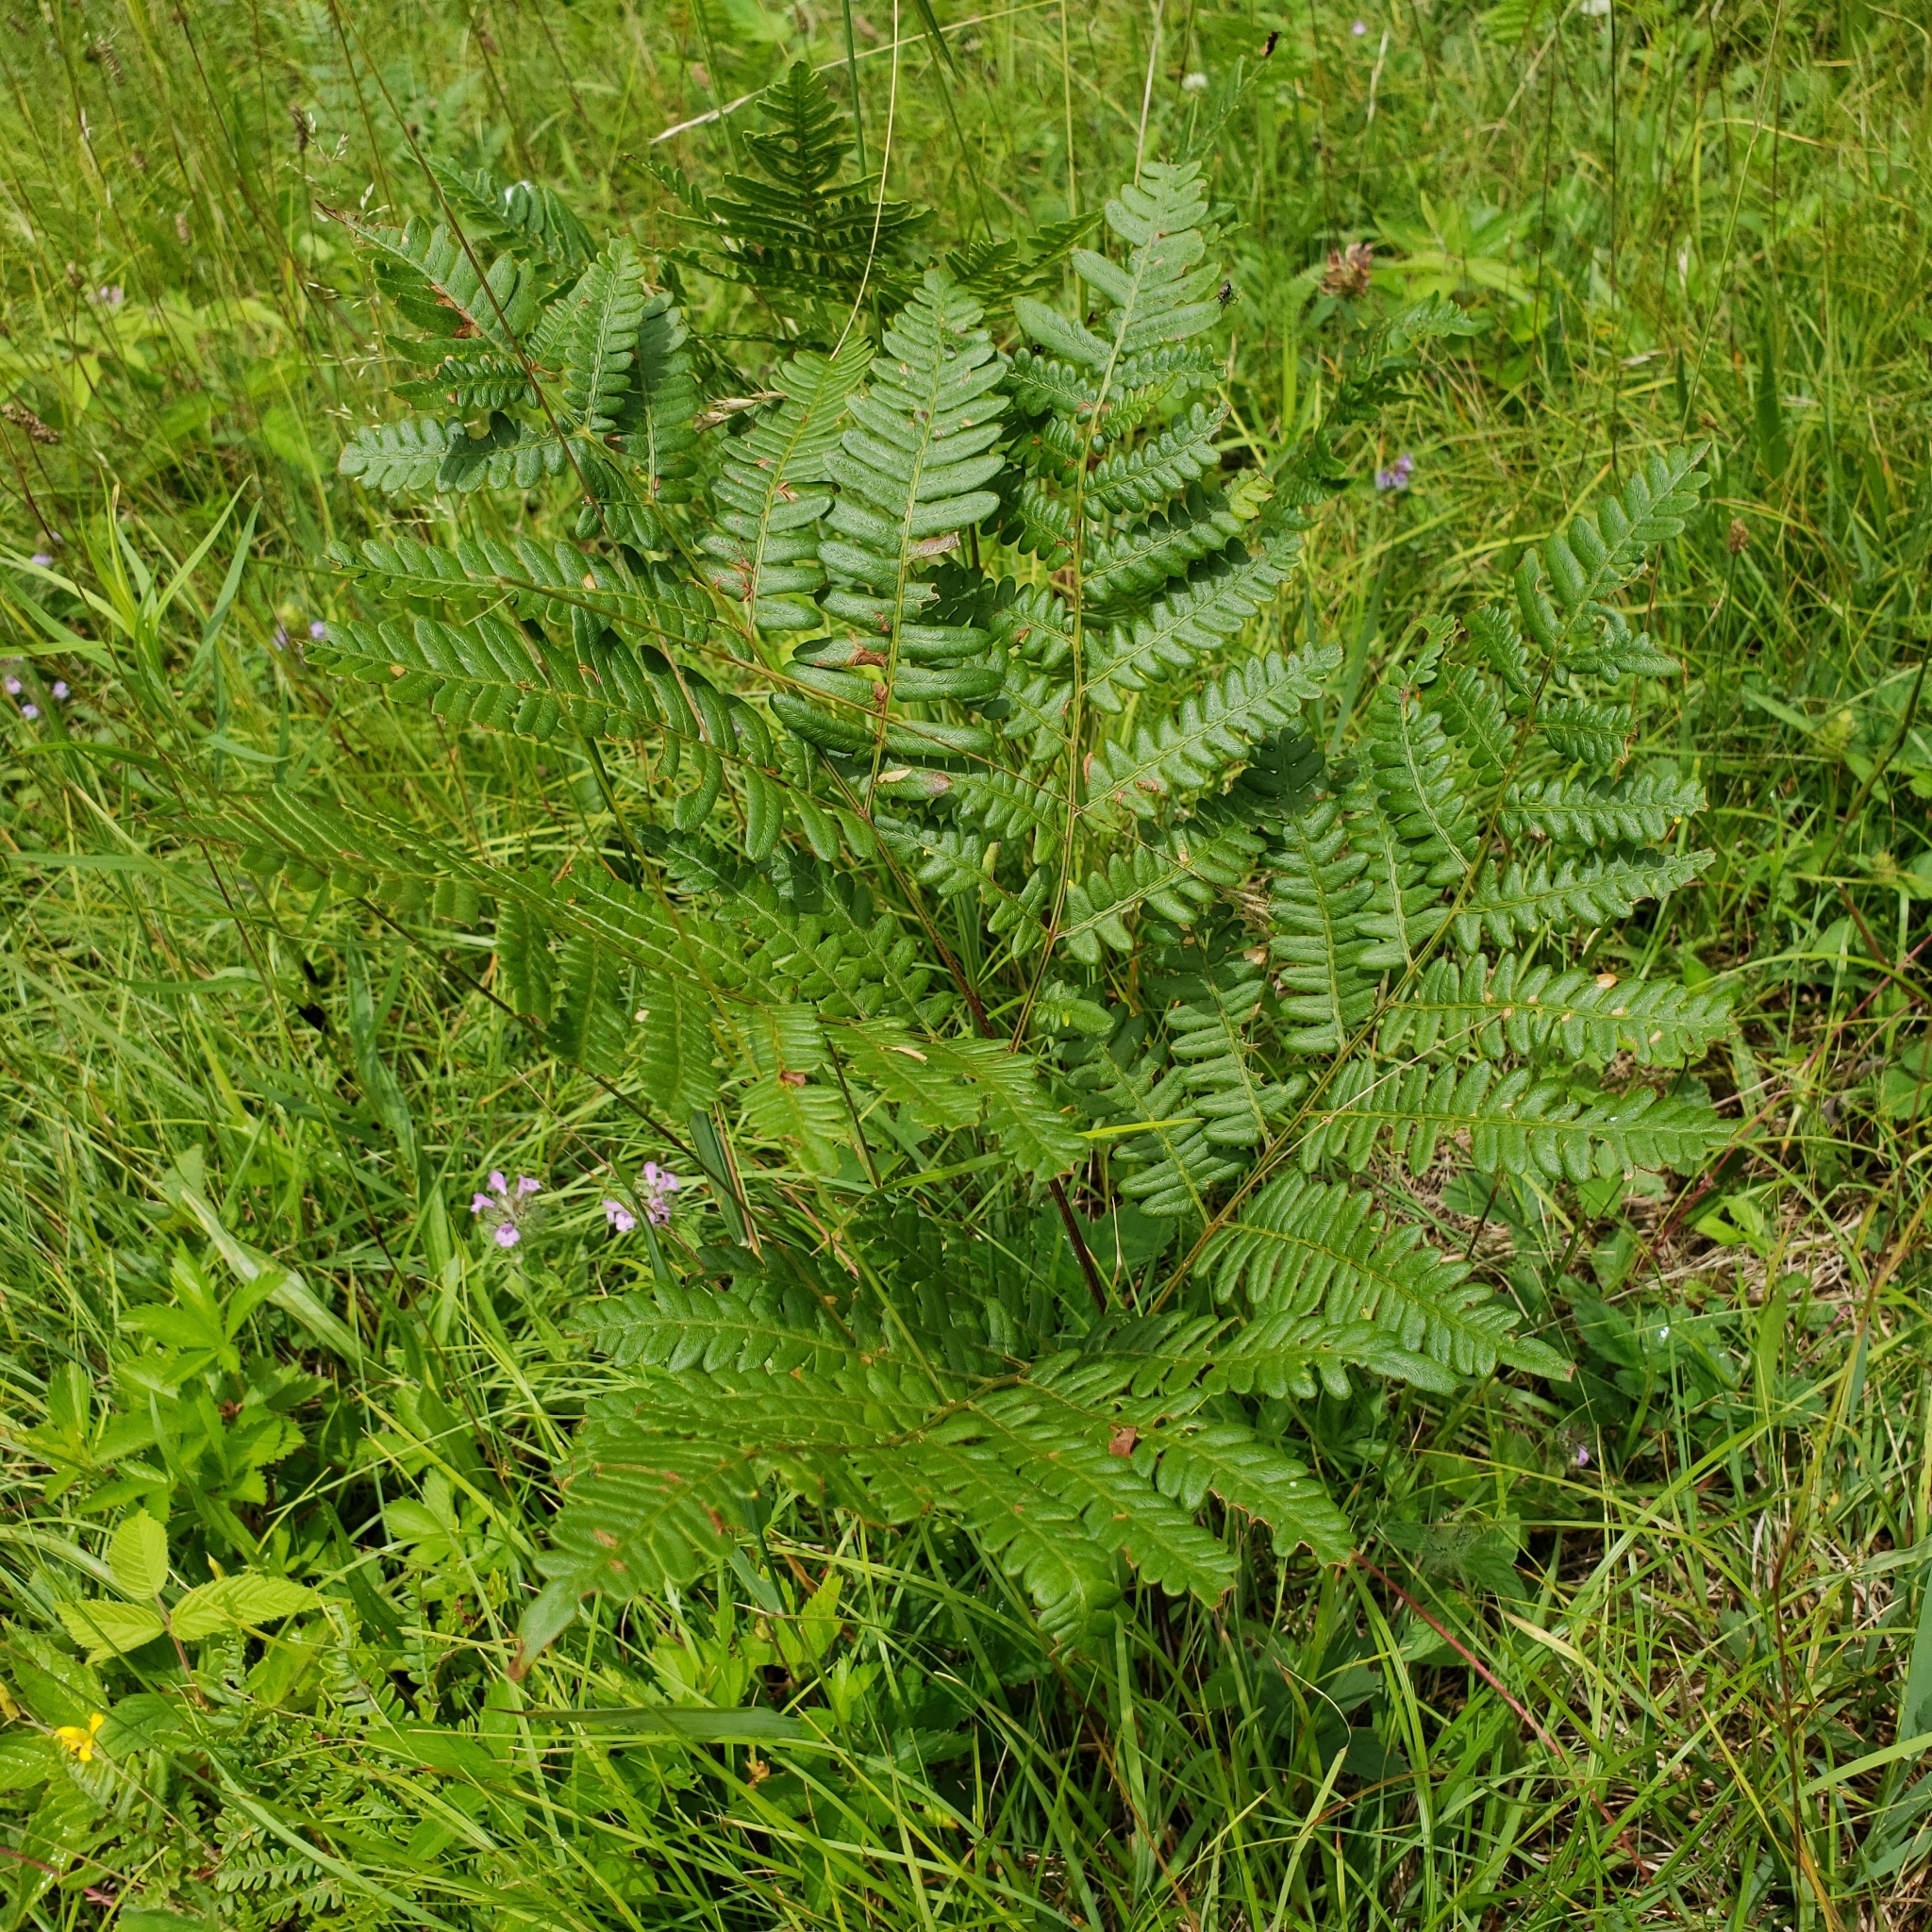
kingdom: Plantae
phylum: Tracheophyta
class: Polypodiopsida
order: Polypodiales
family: Dennstaedtiaceae
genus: Pteridium
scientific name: Pteridium aquilinum
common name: Bracken
